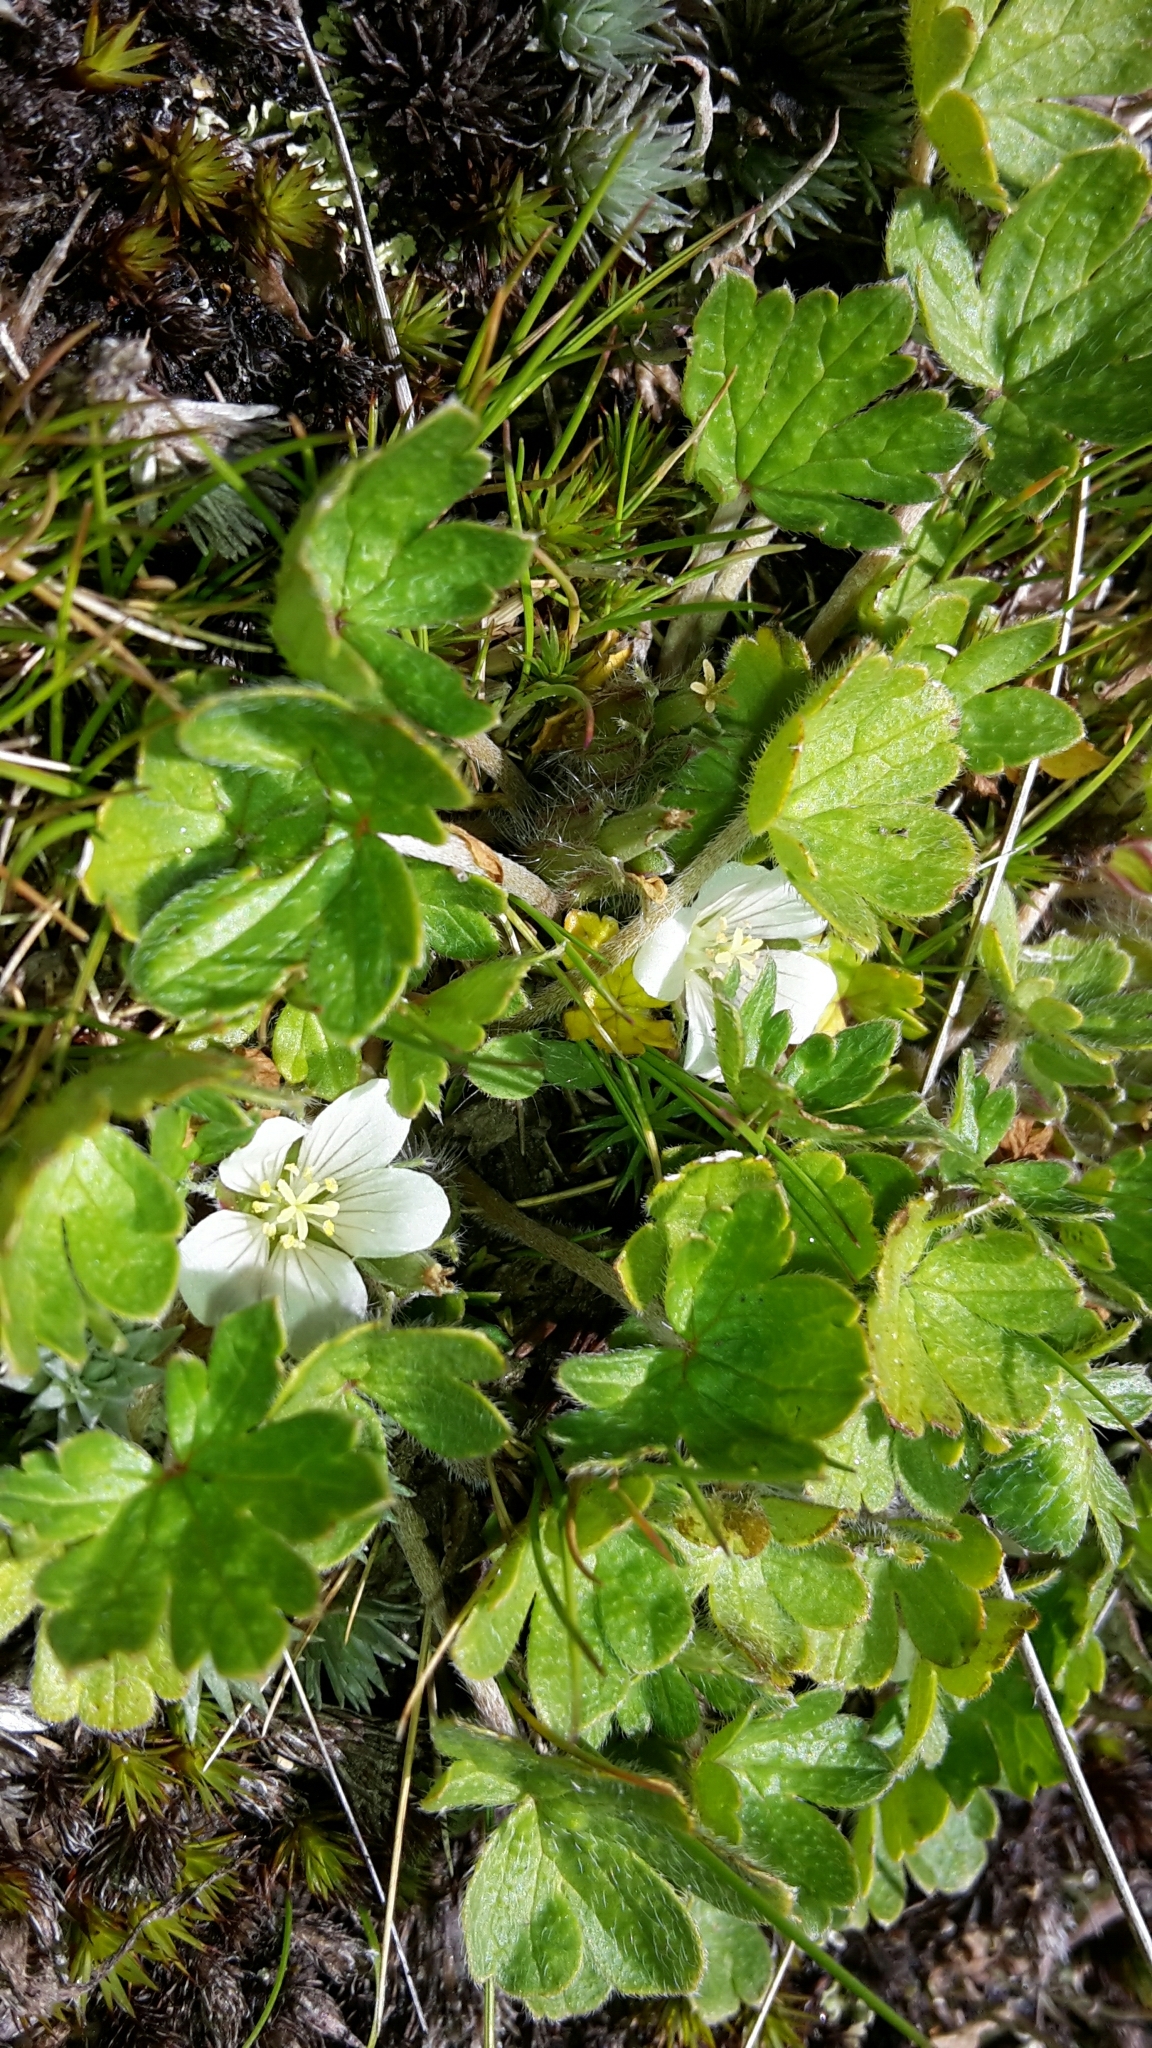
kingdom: Plantae
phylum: Tracheophyta
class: Magnoliopsida
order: Geraniales
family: Geraniaceae
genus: Geranium
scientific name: Geranium brevicaule
